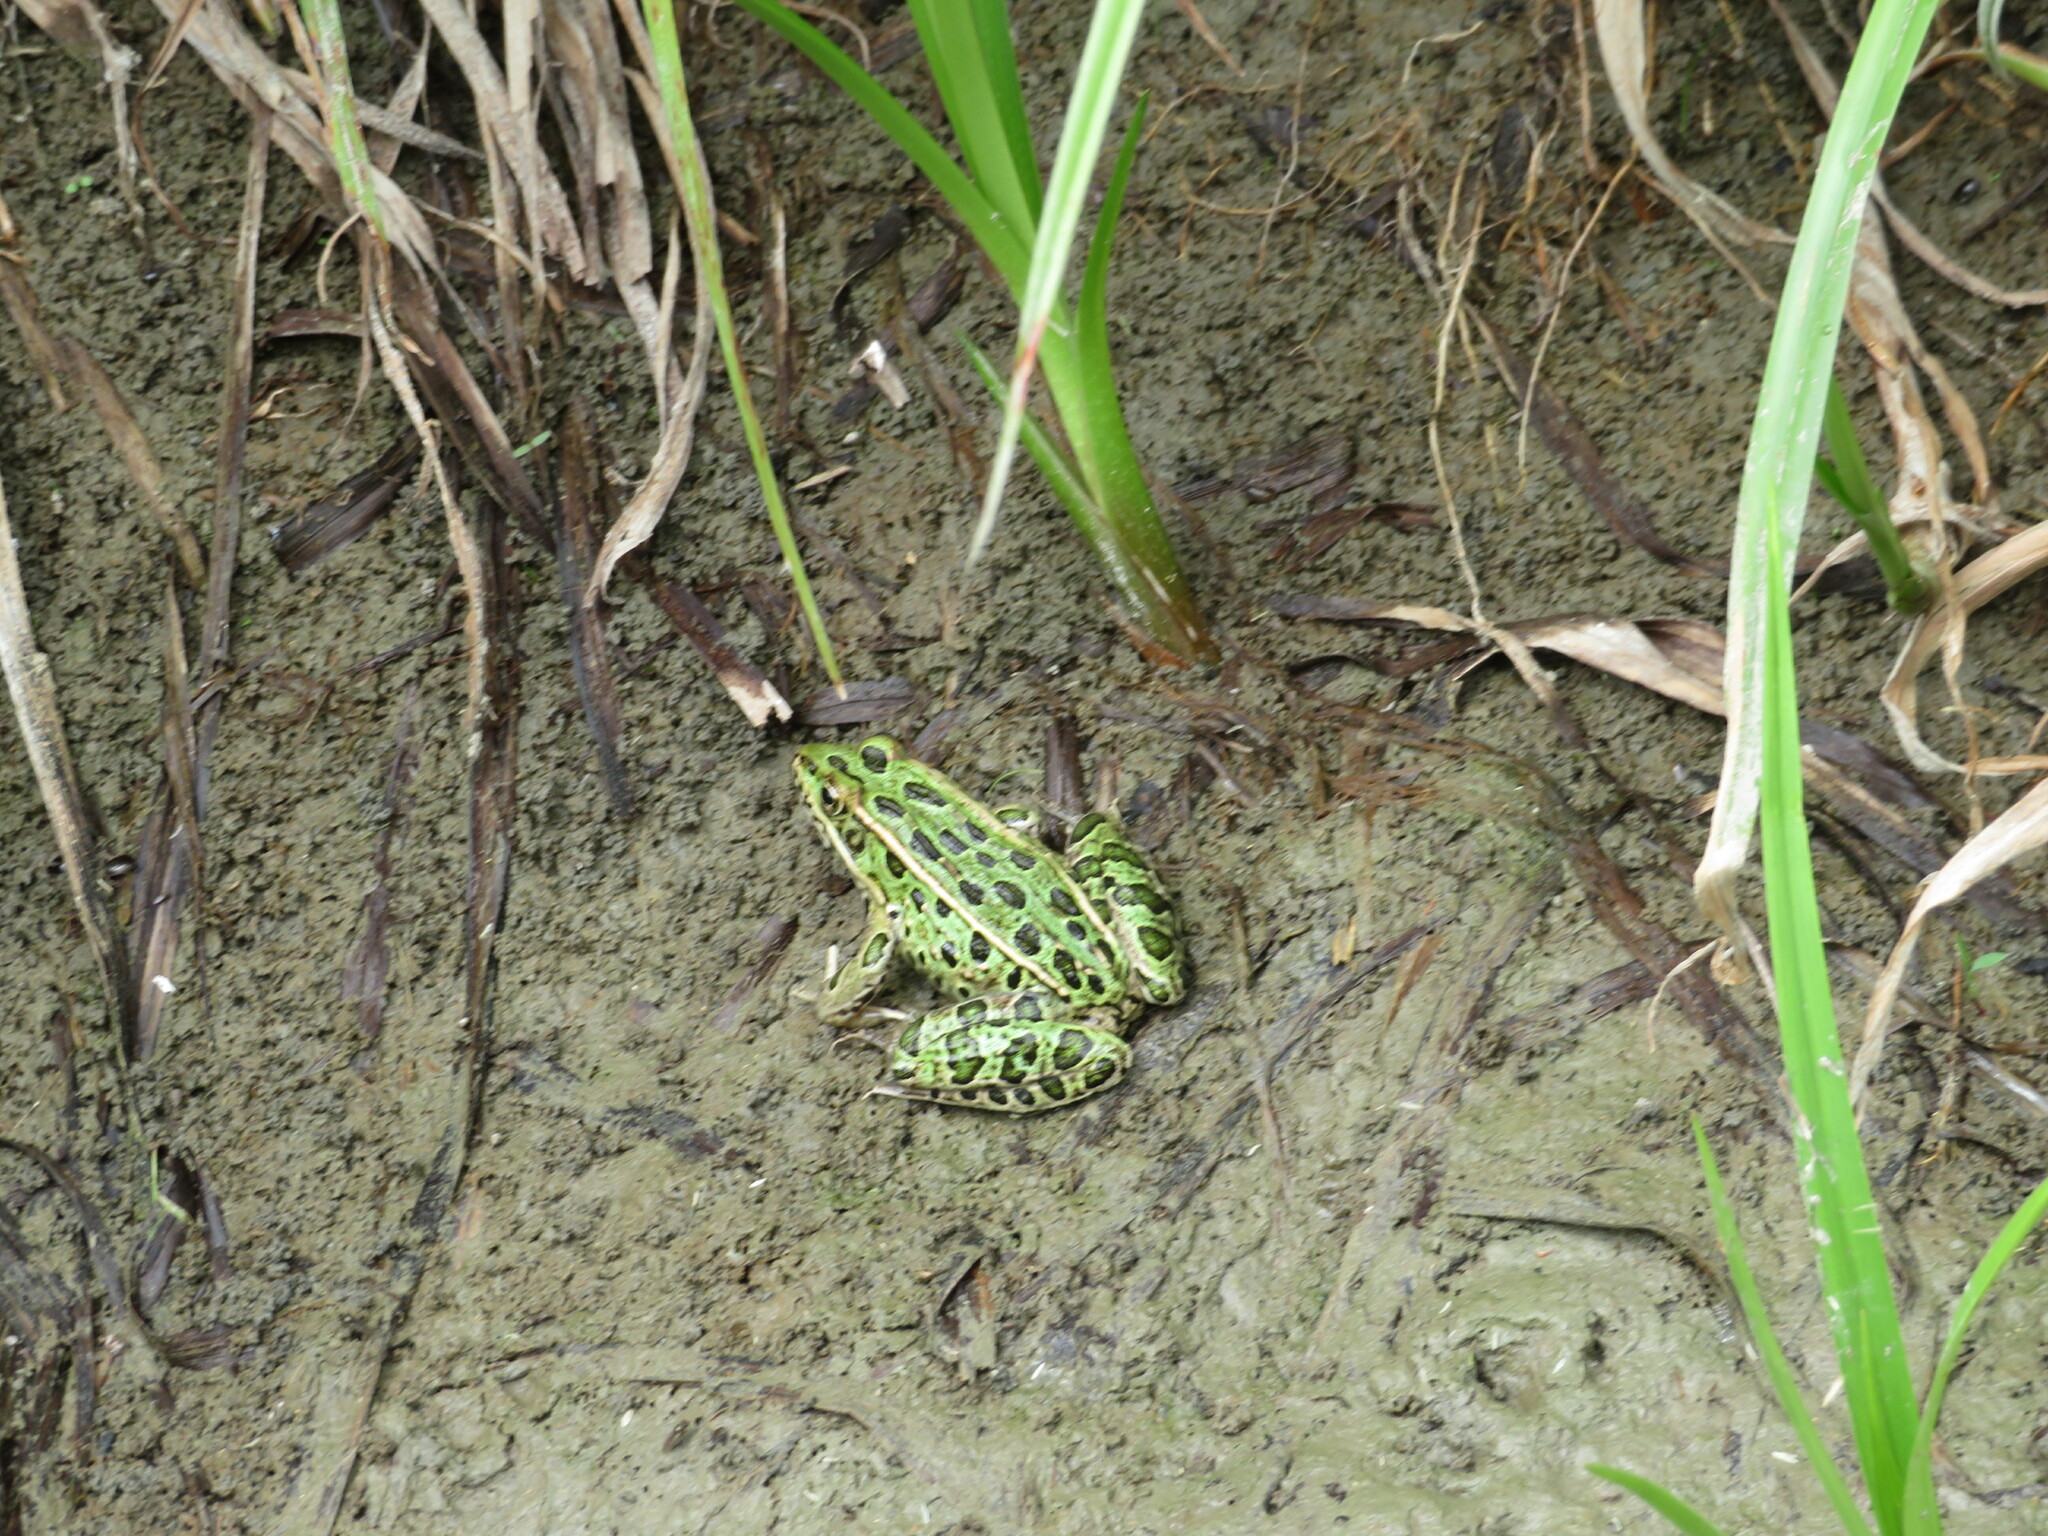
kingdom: Animalia
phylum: Chordata
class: Amphibia
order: Anura
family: Ranidae
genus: Lithobates
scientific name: Lithobates pipiens
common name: Northern leopard frog
